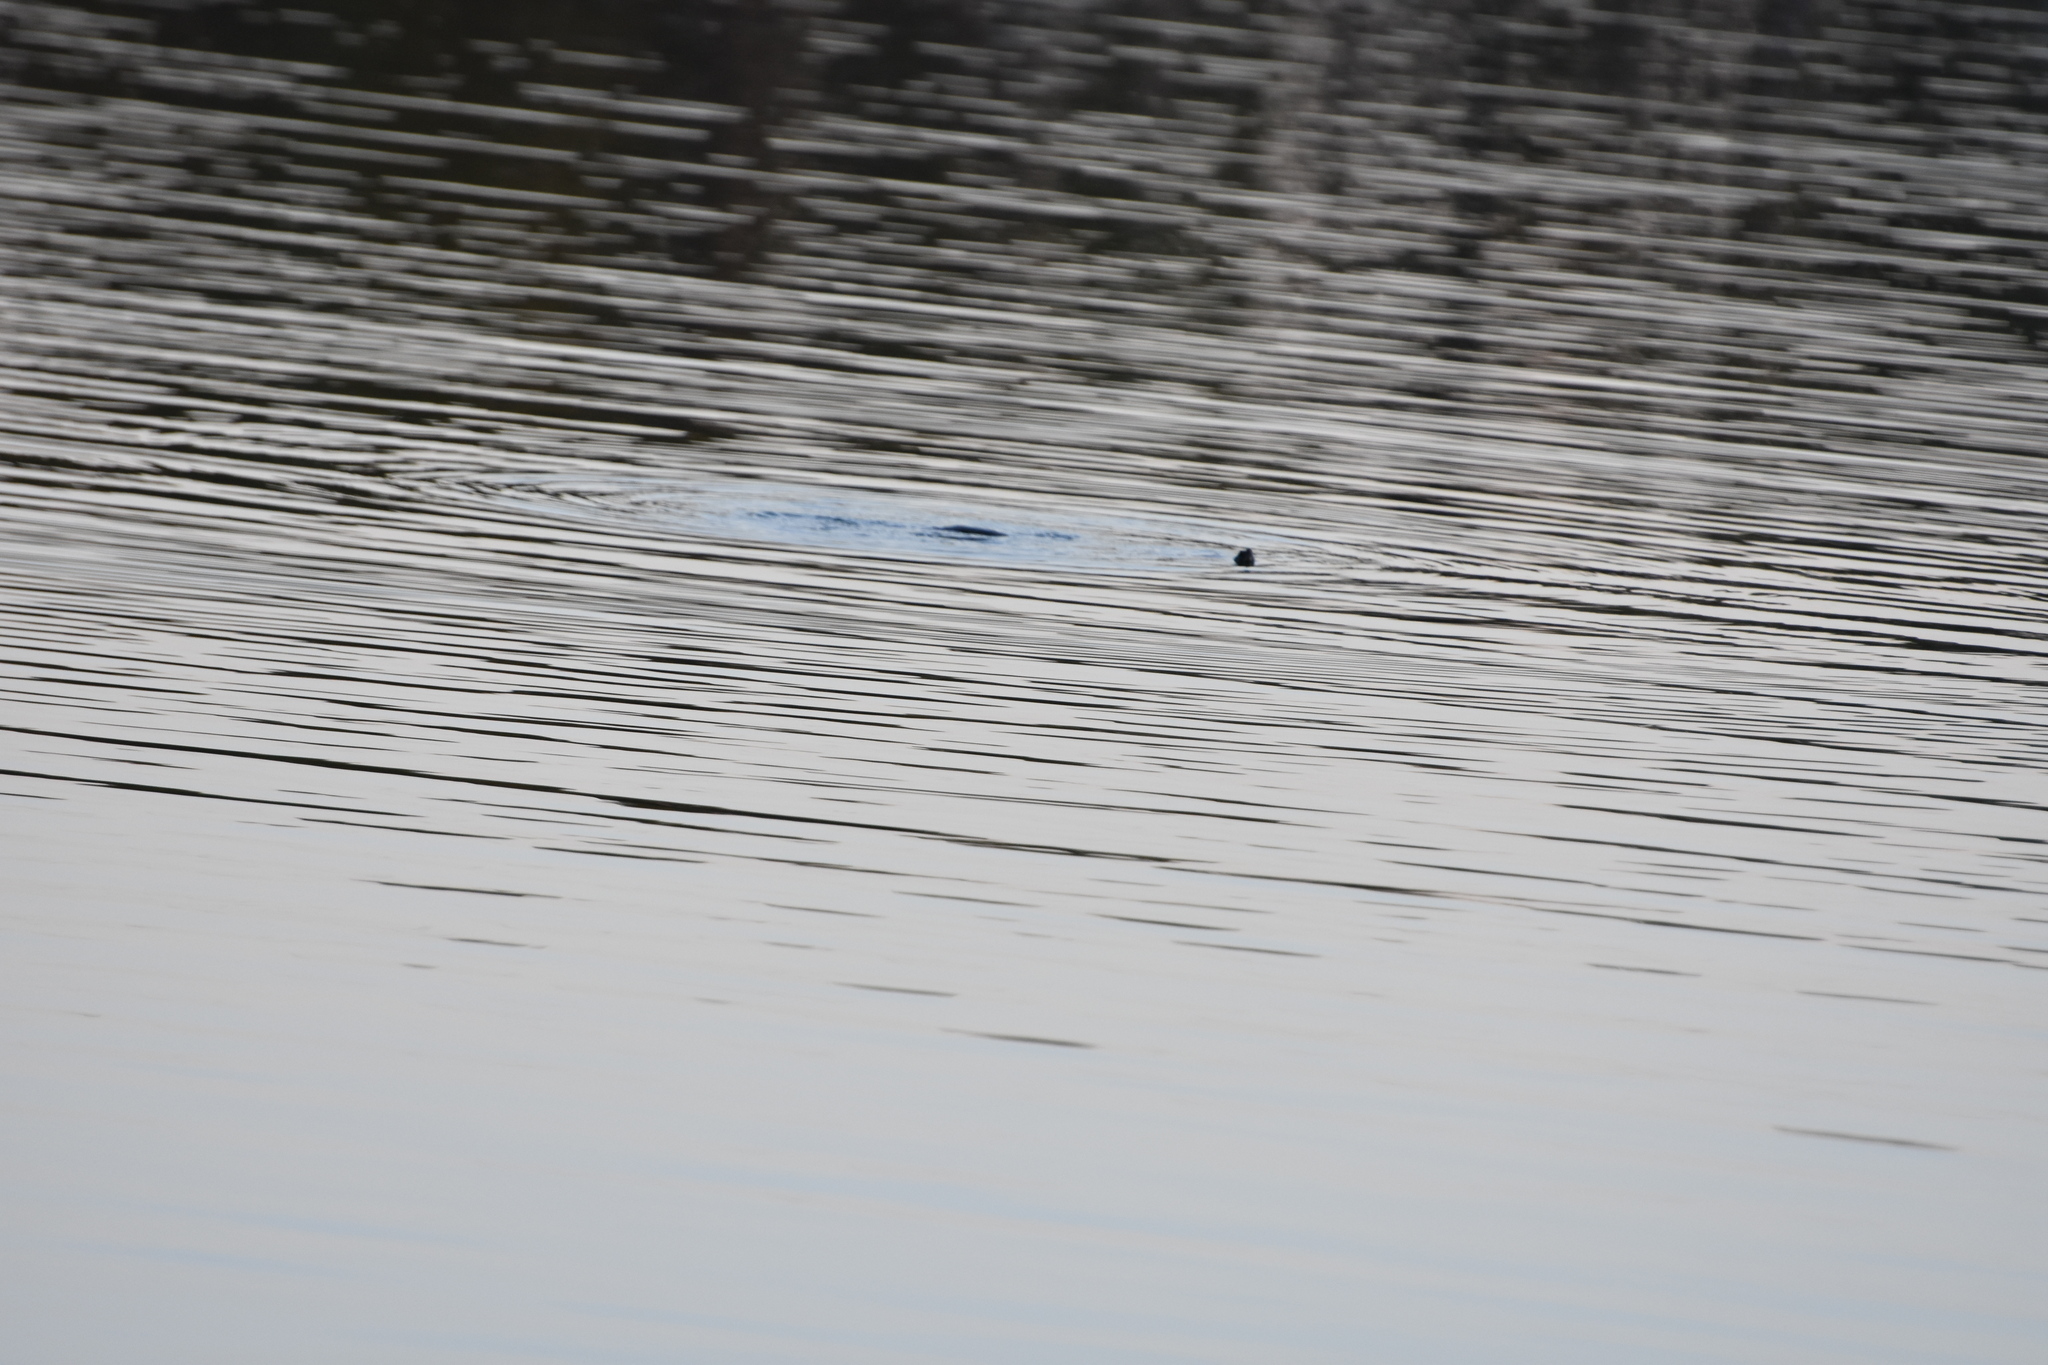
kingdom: Animalia
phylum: Chordata
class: Testudines
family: Emydidae
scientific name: Emydidae
